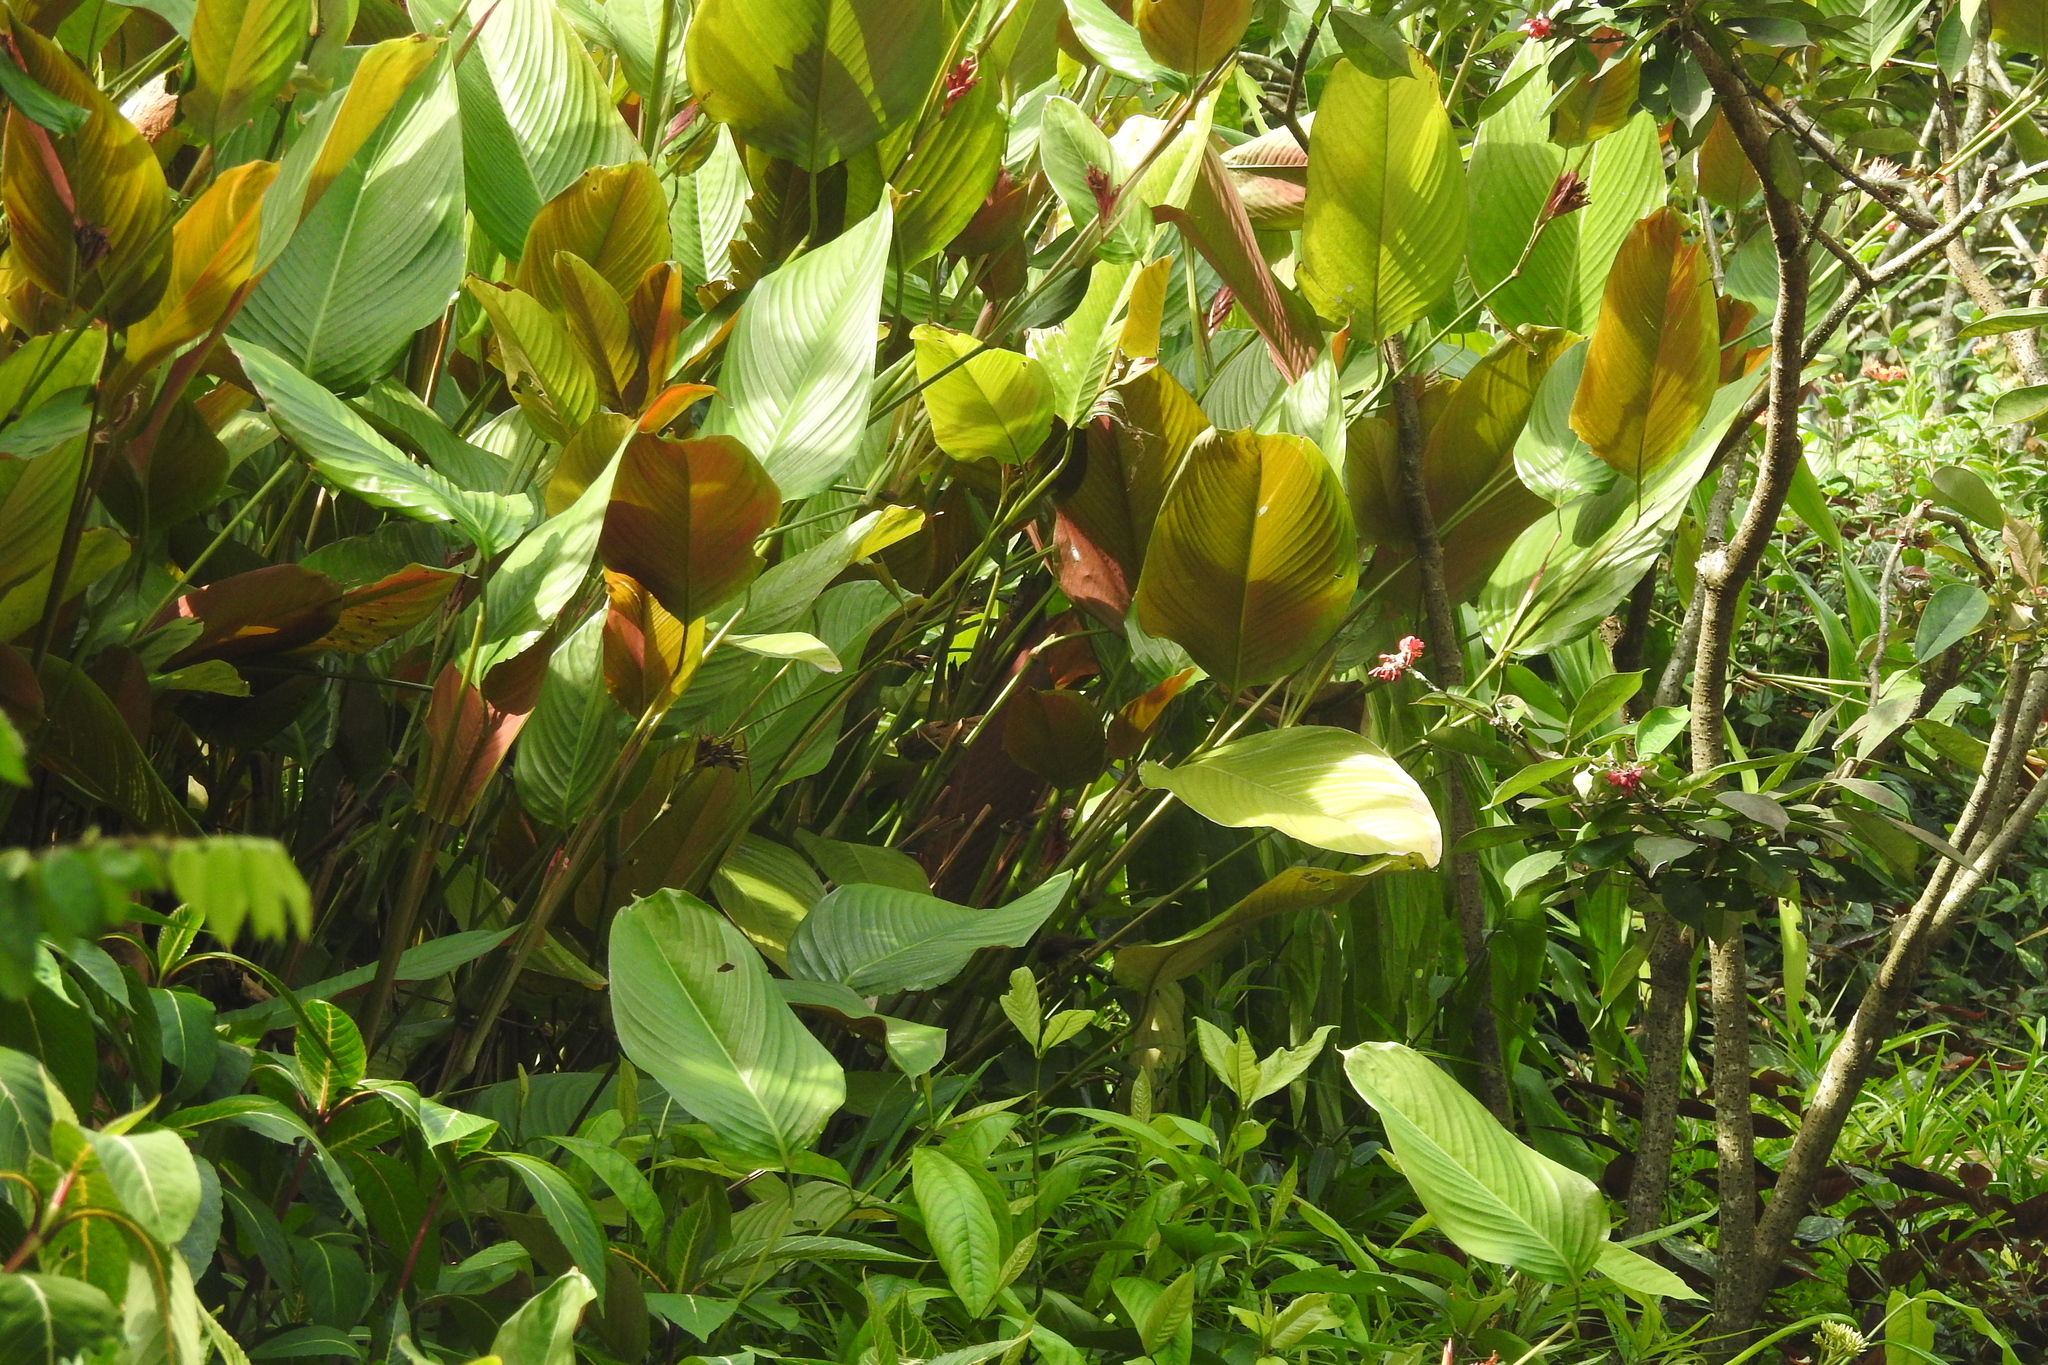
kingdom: Plantae
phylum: Tracheophyta
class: Liliopsida
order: Zingiberales
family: Marantaceae
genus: Marantochloa
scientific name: Marantochloa mannii
